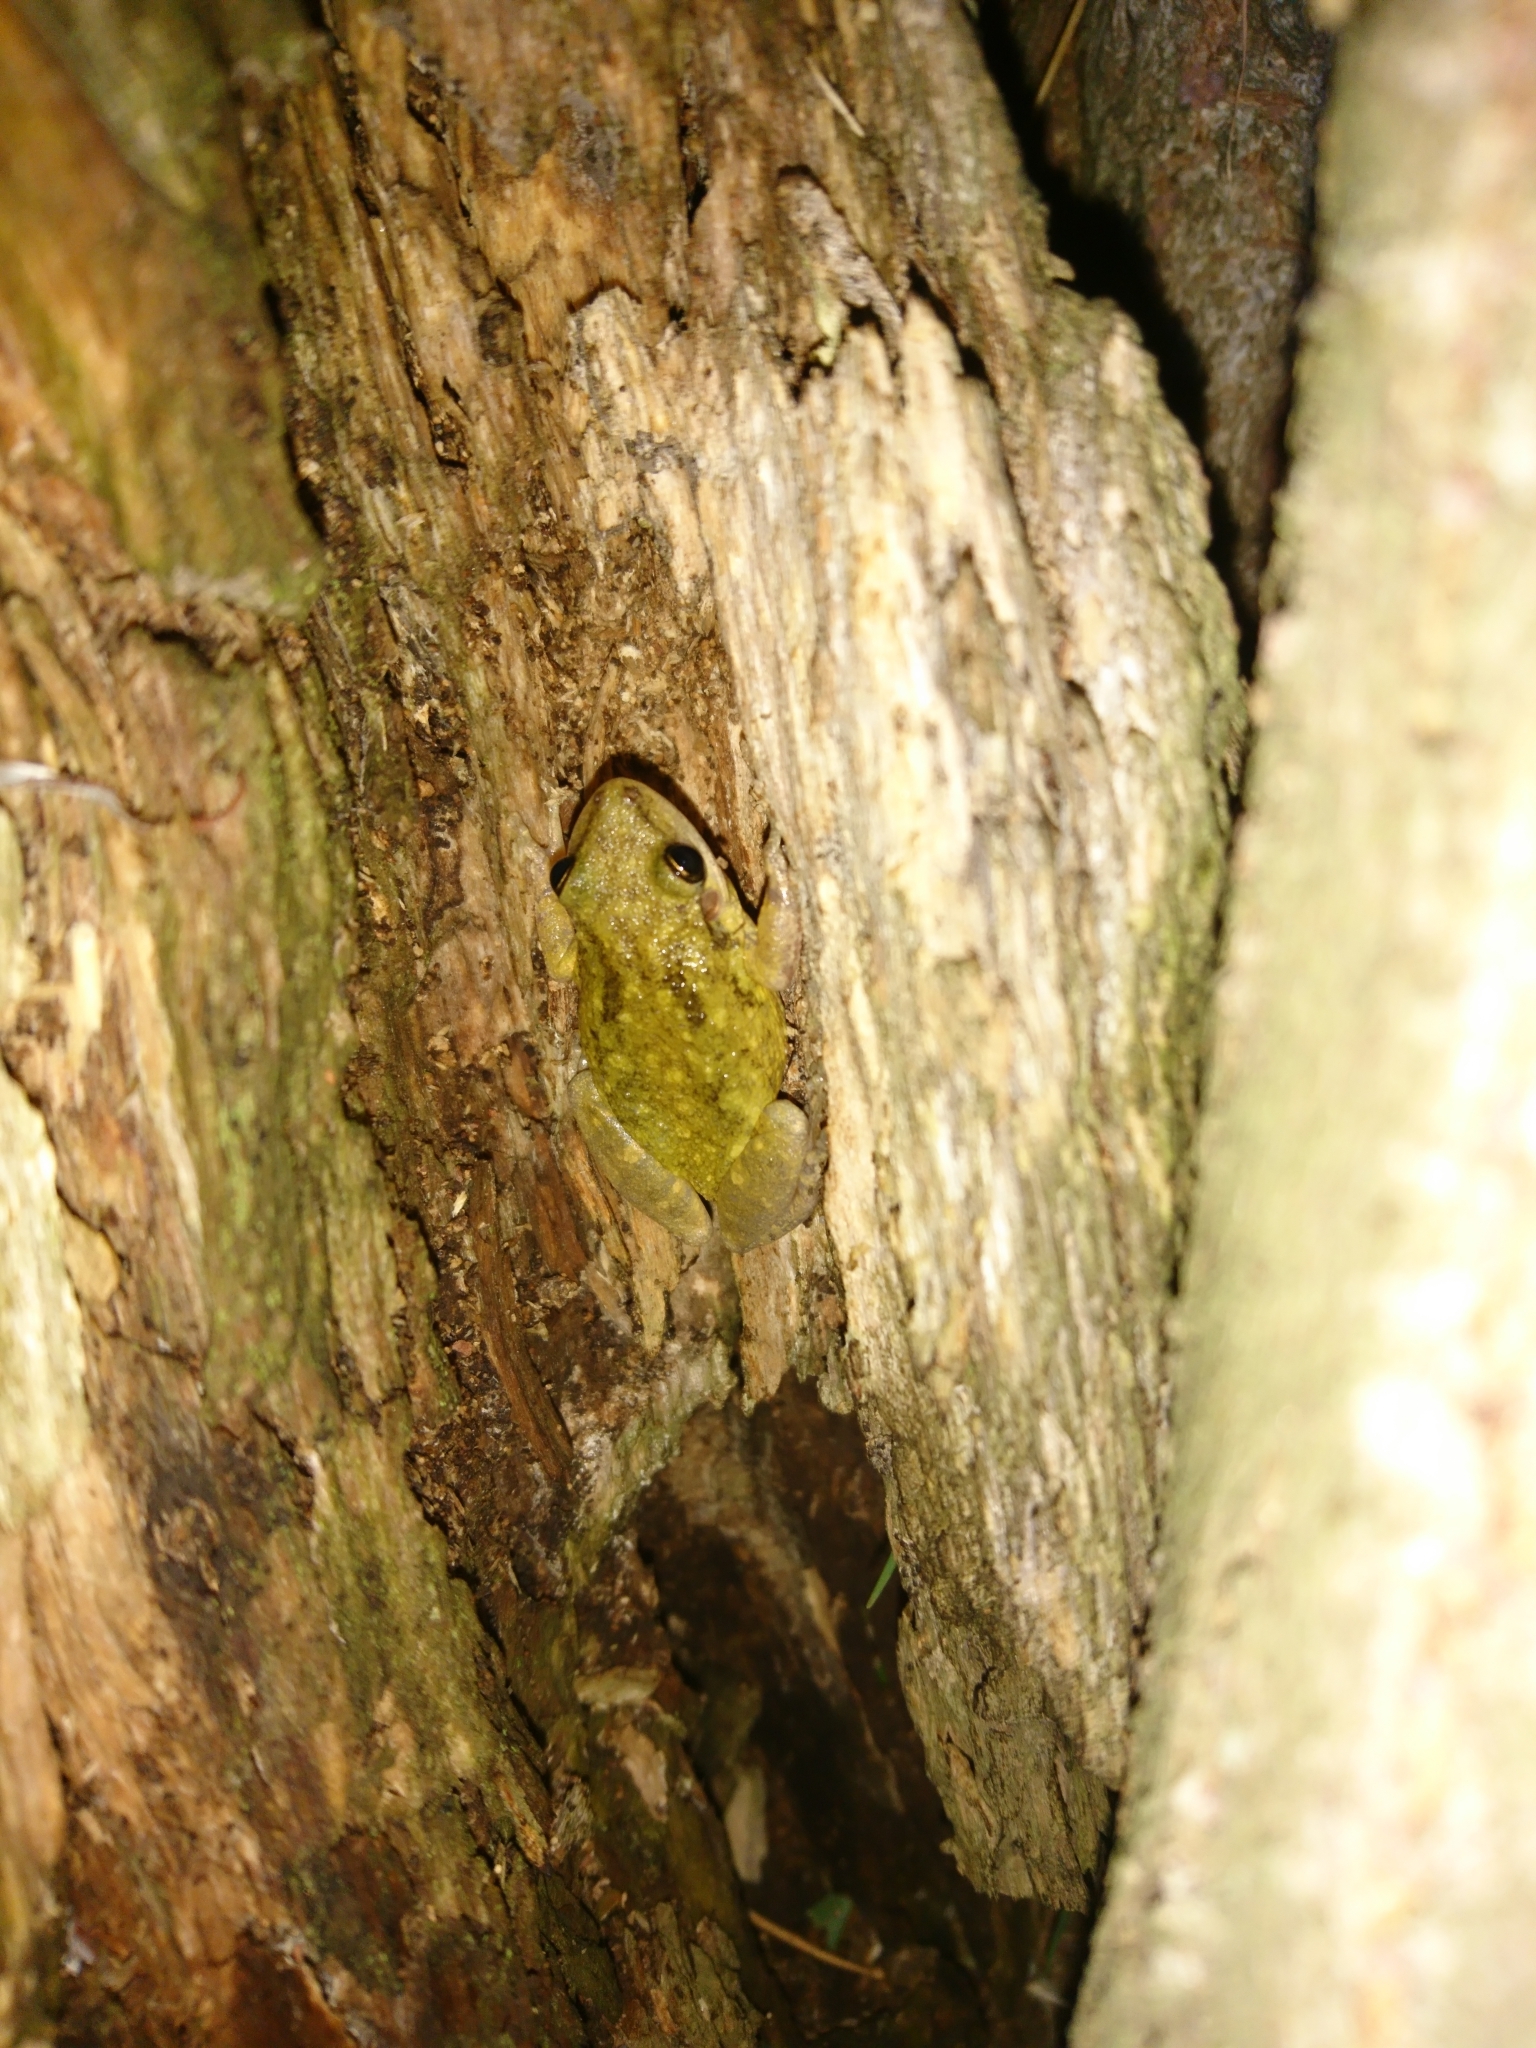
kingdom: Animalia
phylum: Chordata
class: Amphibia
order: Anura
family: Hylidae
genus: Scinax
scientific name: Scinax nasicus
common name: Lesser snouted treefrog
